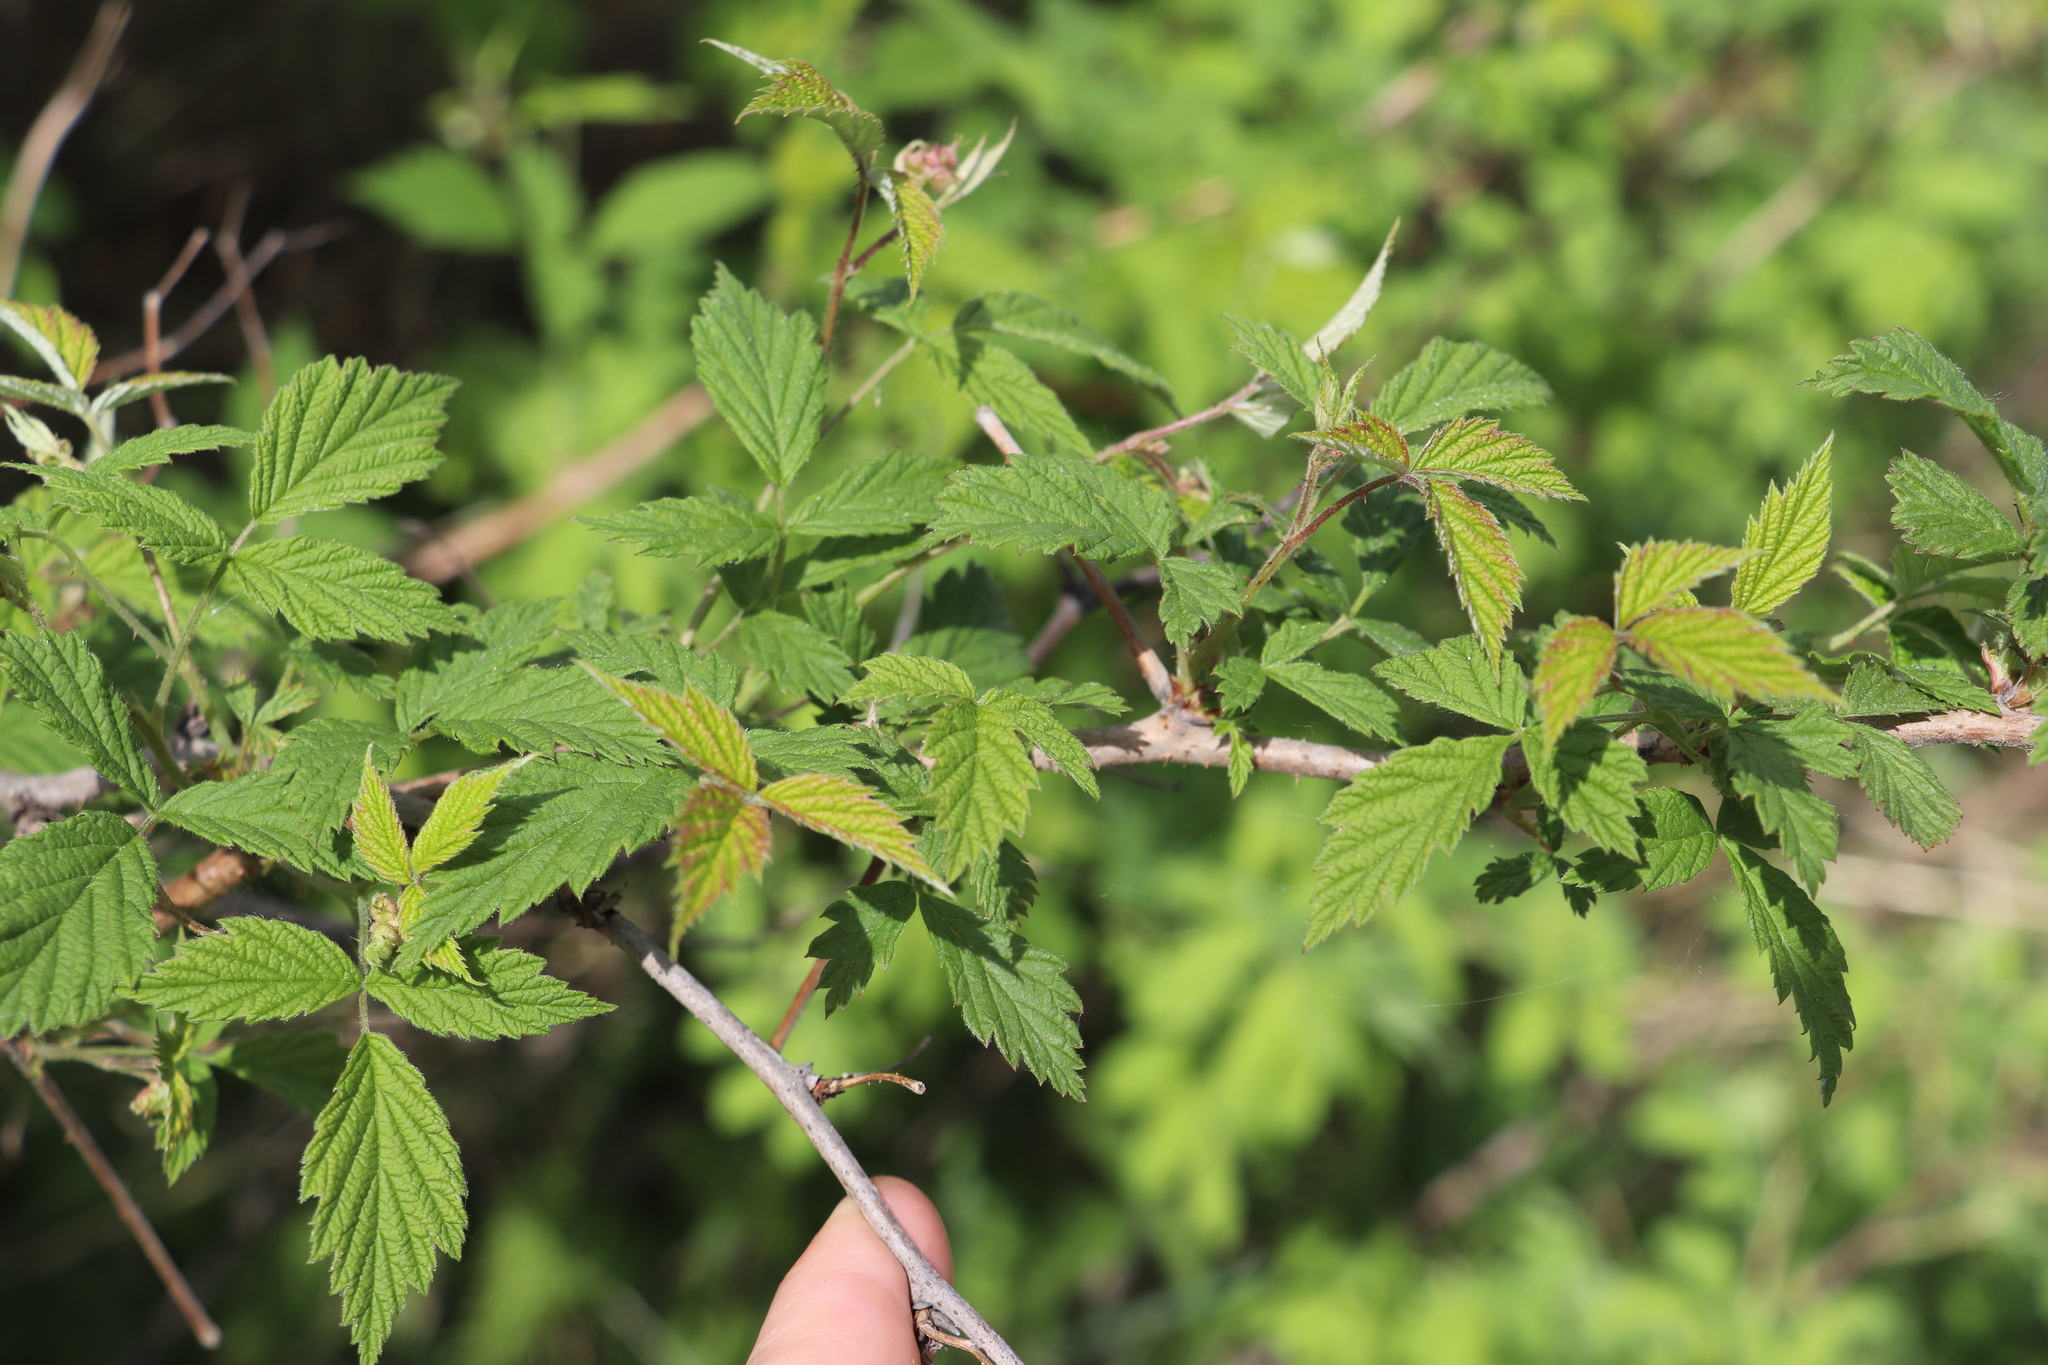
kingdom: Plantae
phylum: Tracheophyta
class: Magnoliopsida
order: Rosales
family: Rosaceae
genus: Rubus
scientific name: Rubus sachalinensis
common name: Red raspberry
